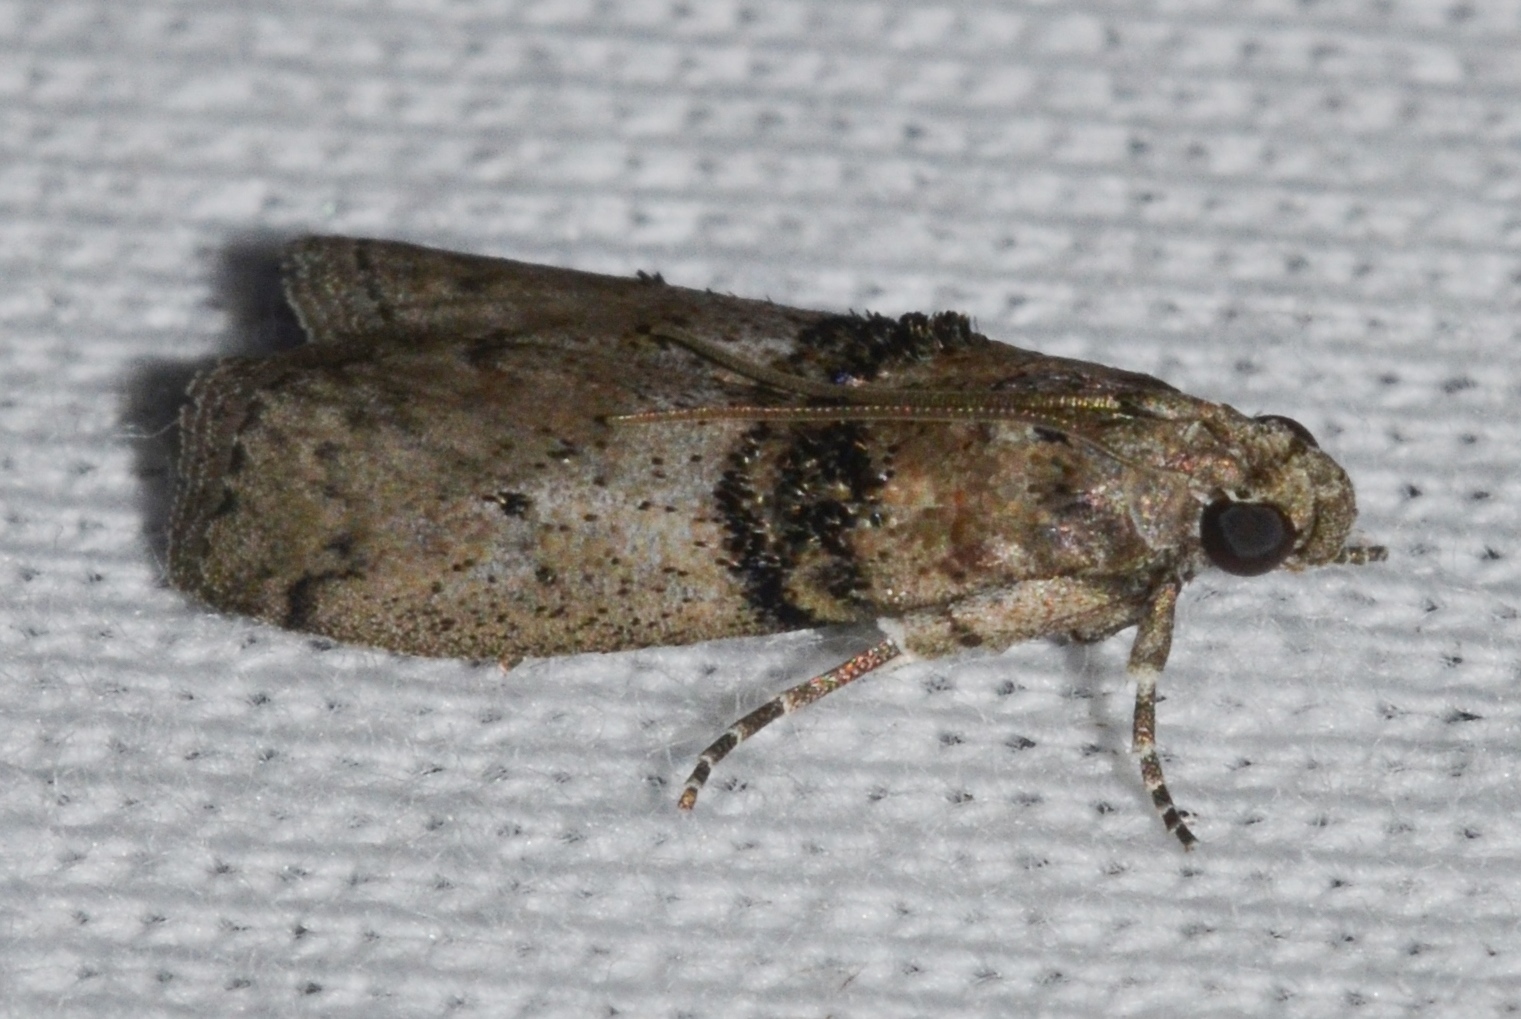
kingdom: Animalia
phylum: Arthropoda
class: Insecta
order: Lepidoptera
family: Pyralidae
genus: Tlascala
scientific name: Tlascala reductella
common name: Tlascala moth
